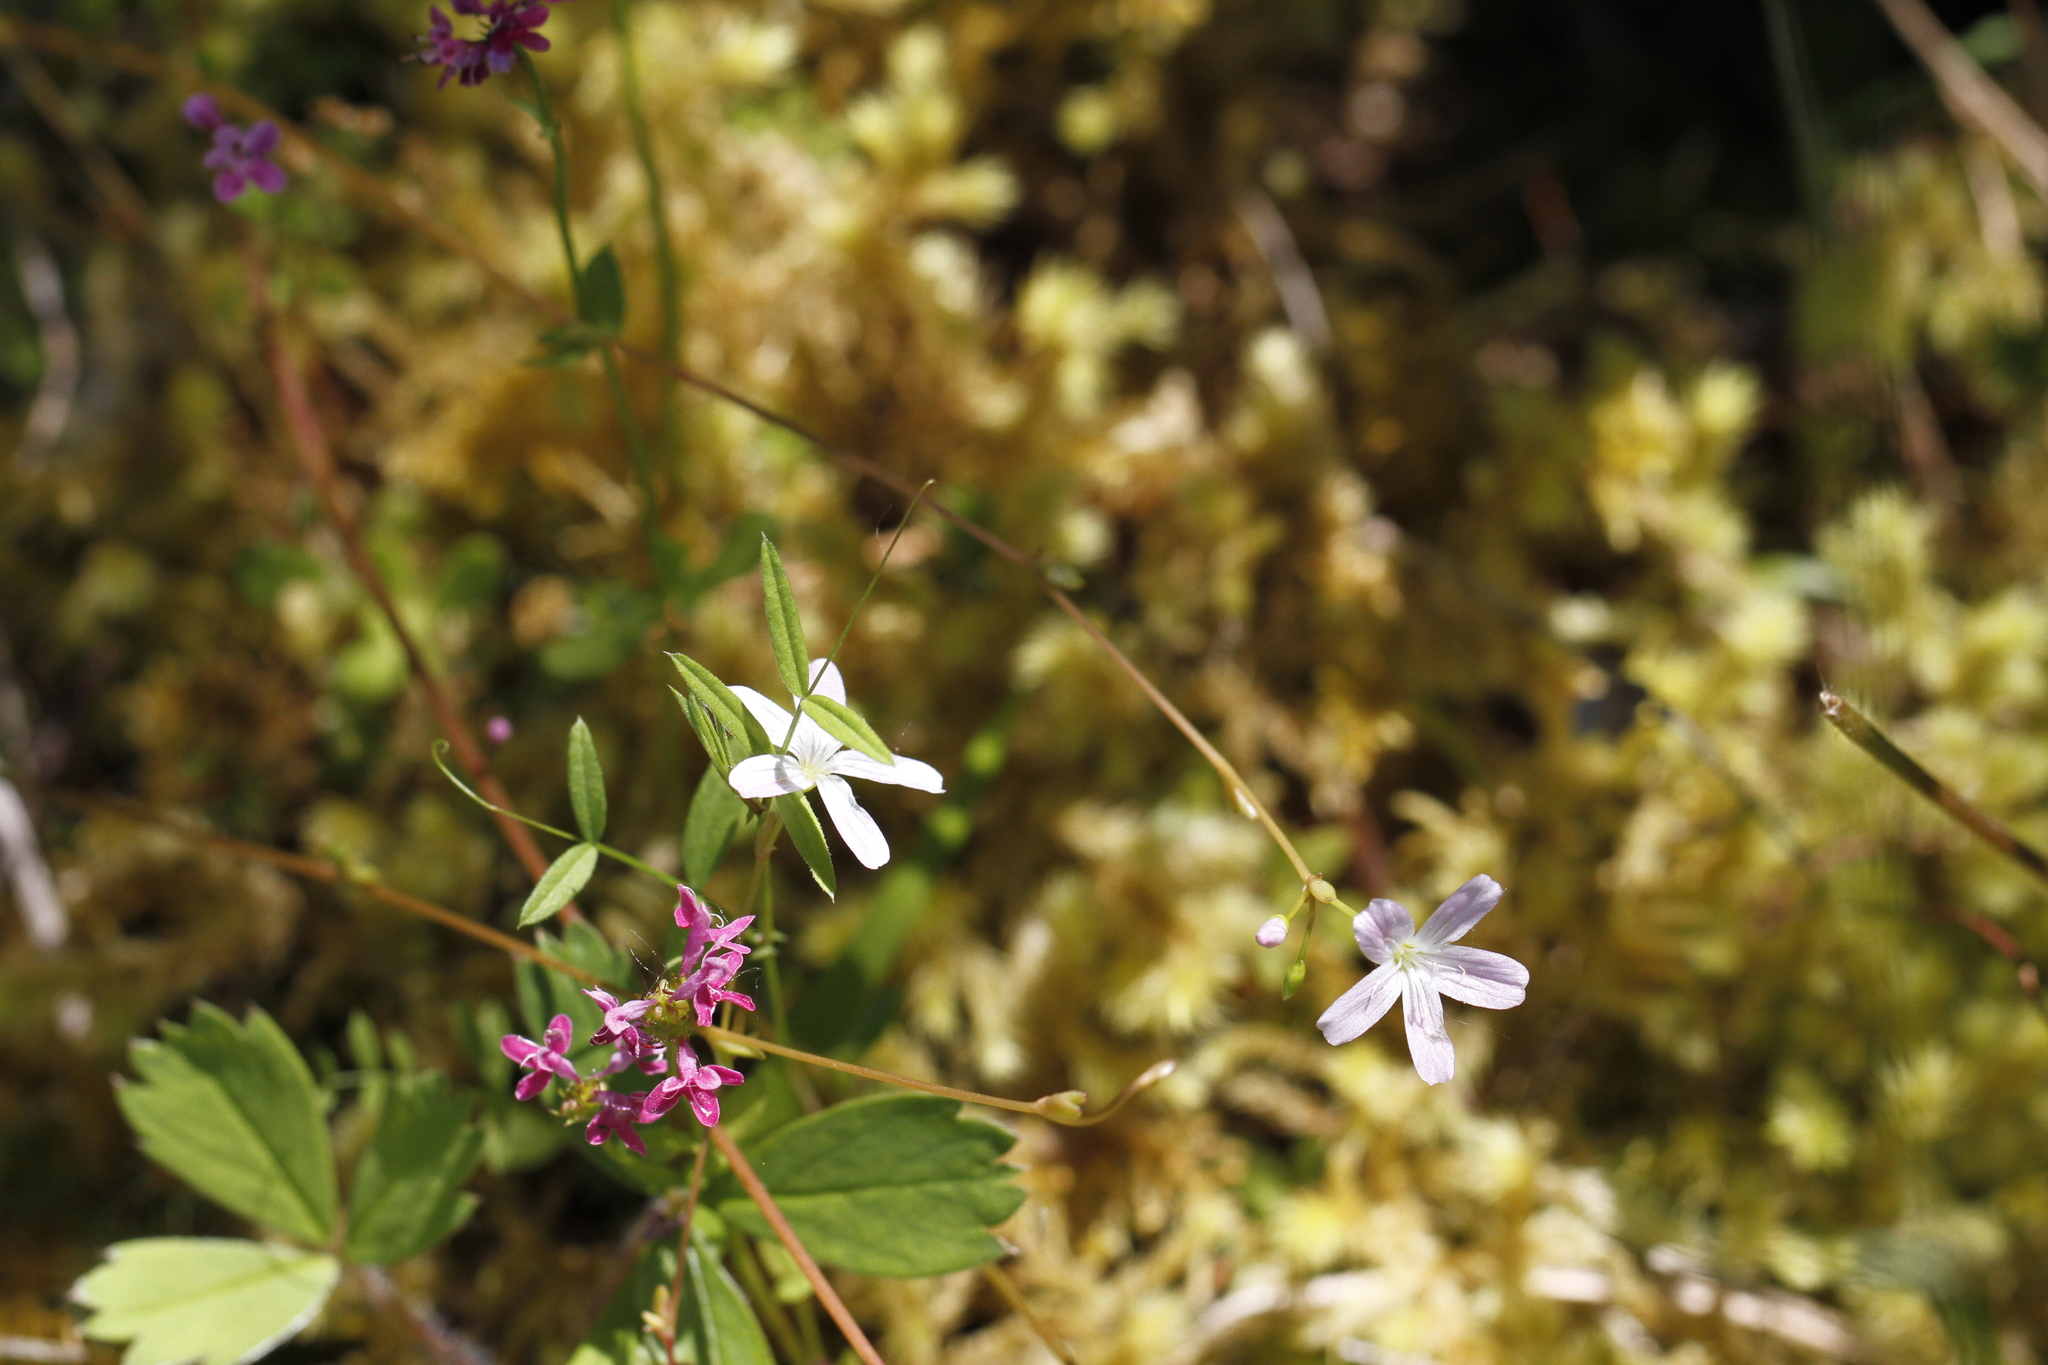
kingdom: Plantae
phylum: Tracheophyta
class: Magnoliopsida
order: Caryophyllales
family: Montiaceae
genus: Montia
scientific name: Montia parvifolia
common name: Small-leaved blinks
